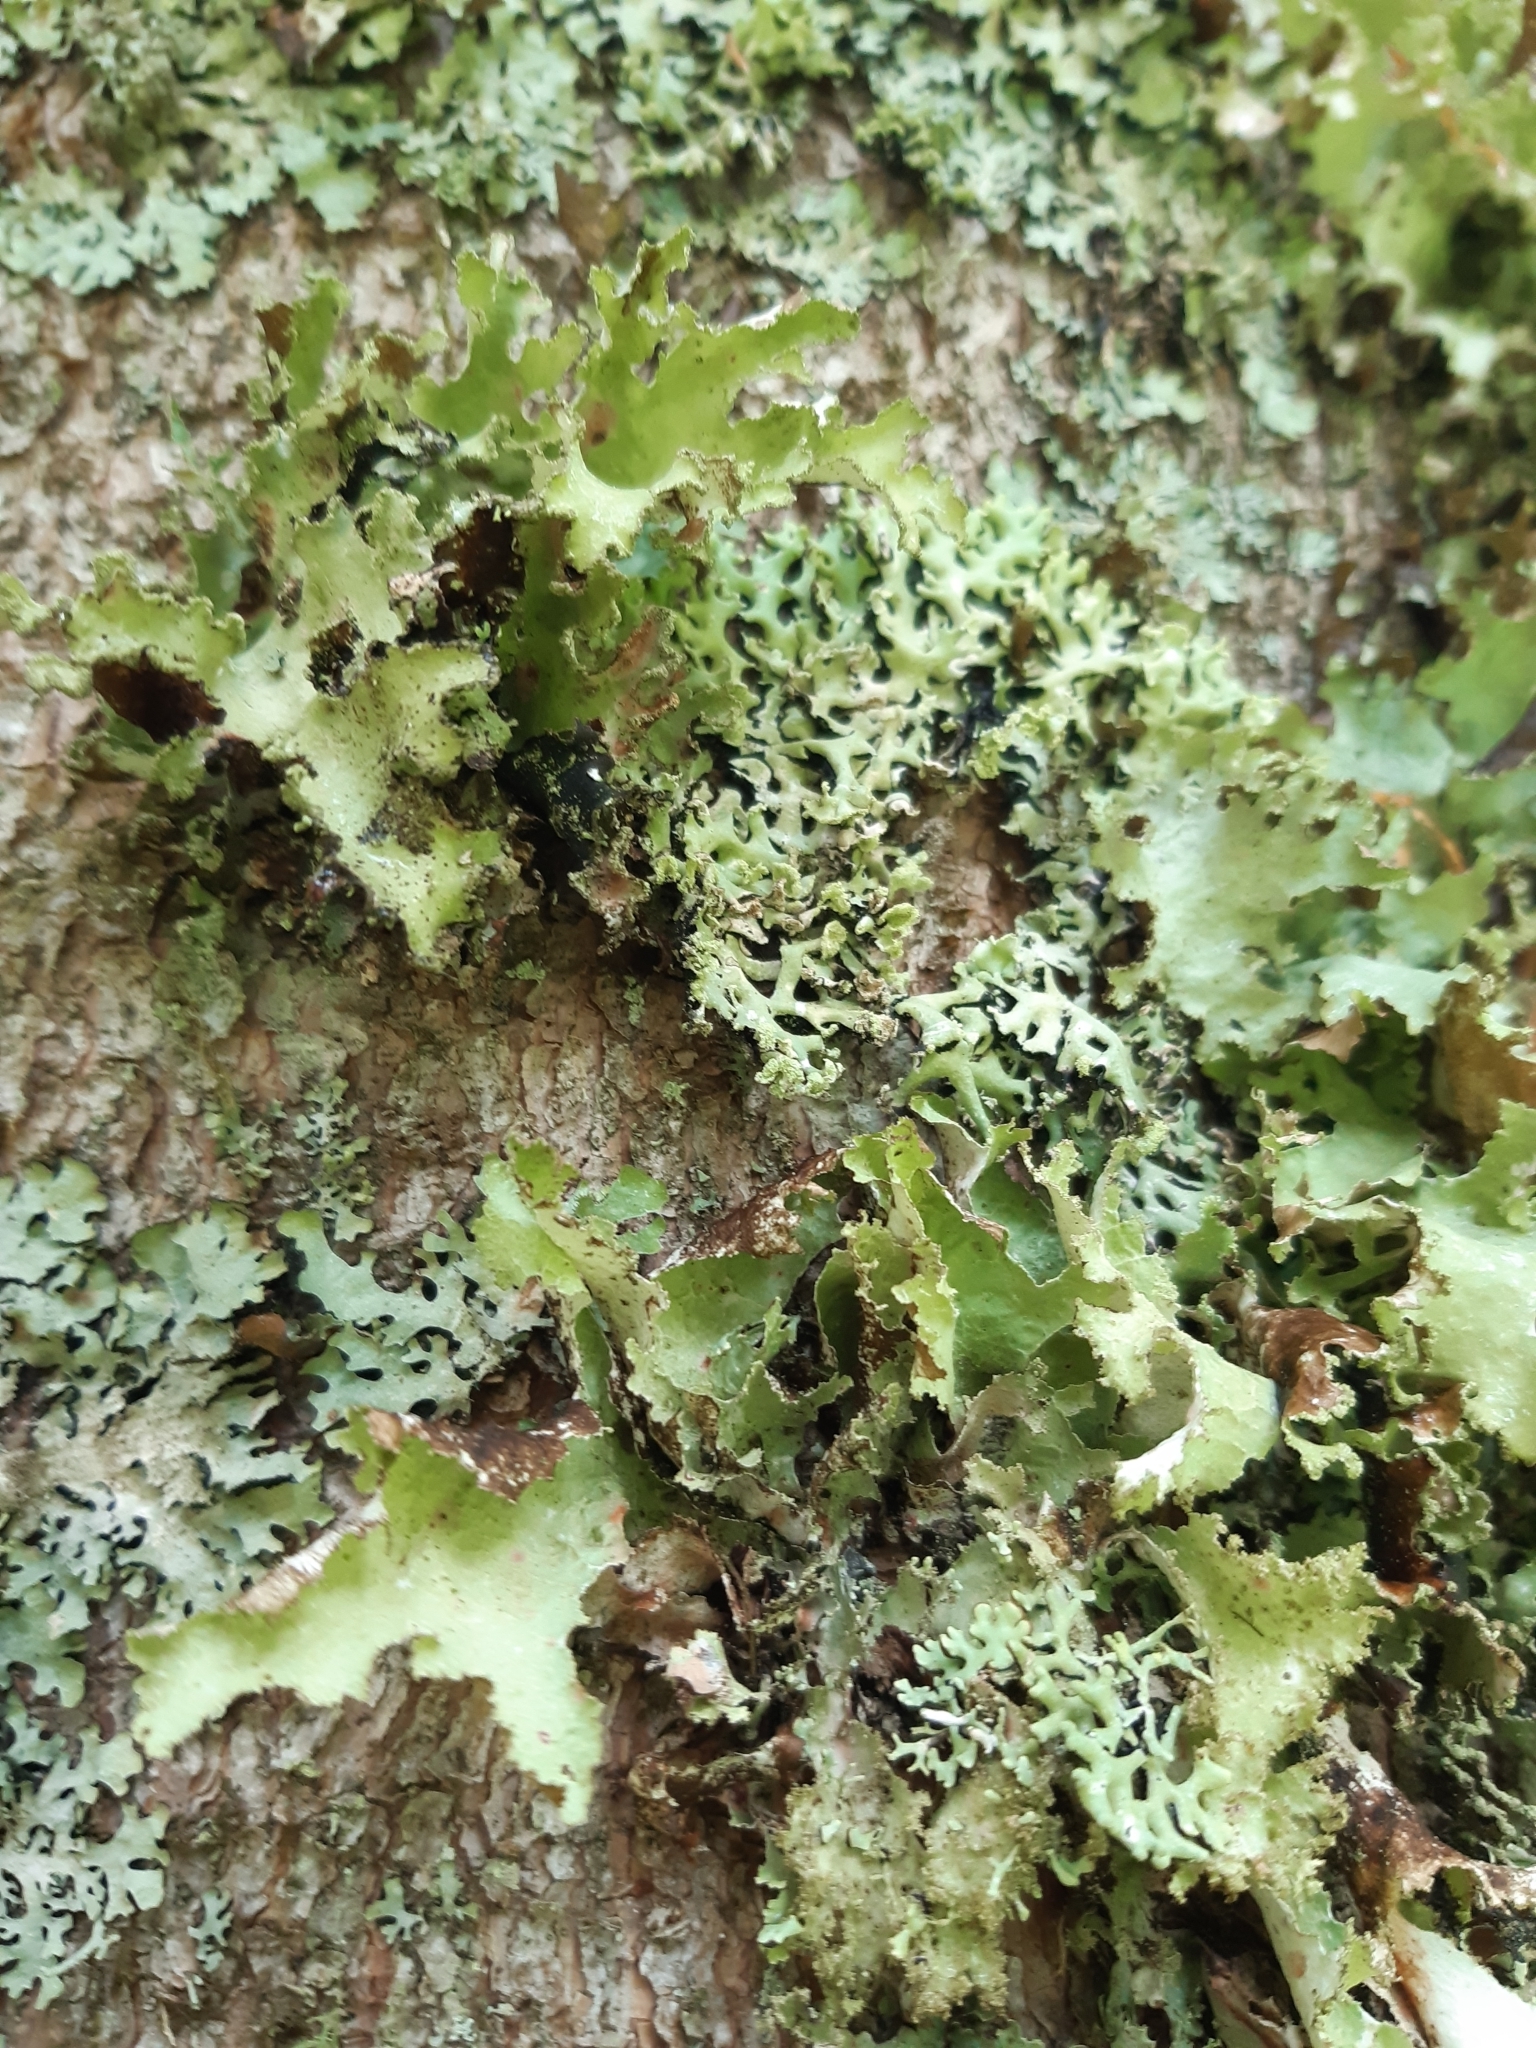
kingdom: Fungi
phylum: Ascomycota
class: Lecanoromycetes
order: Lecanorales
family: Parmeliaceae
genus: Platismatia
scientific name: Platismatia glauca
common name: Varied rag lichen
